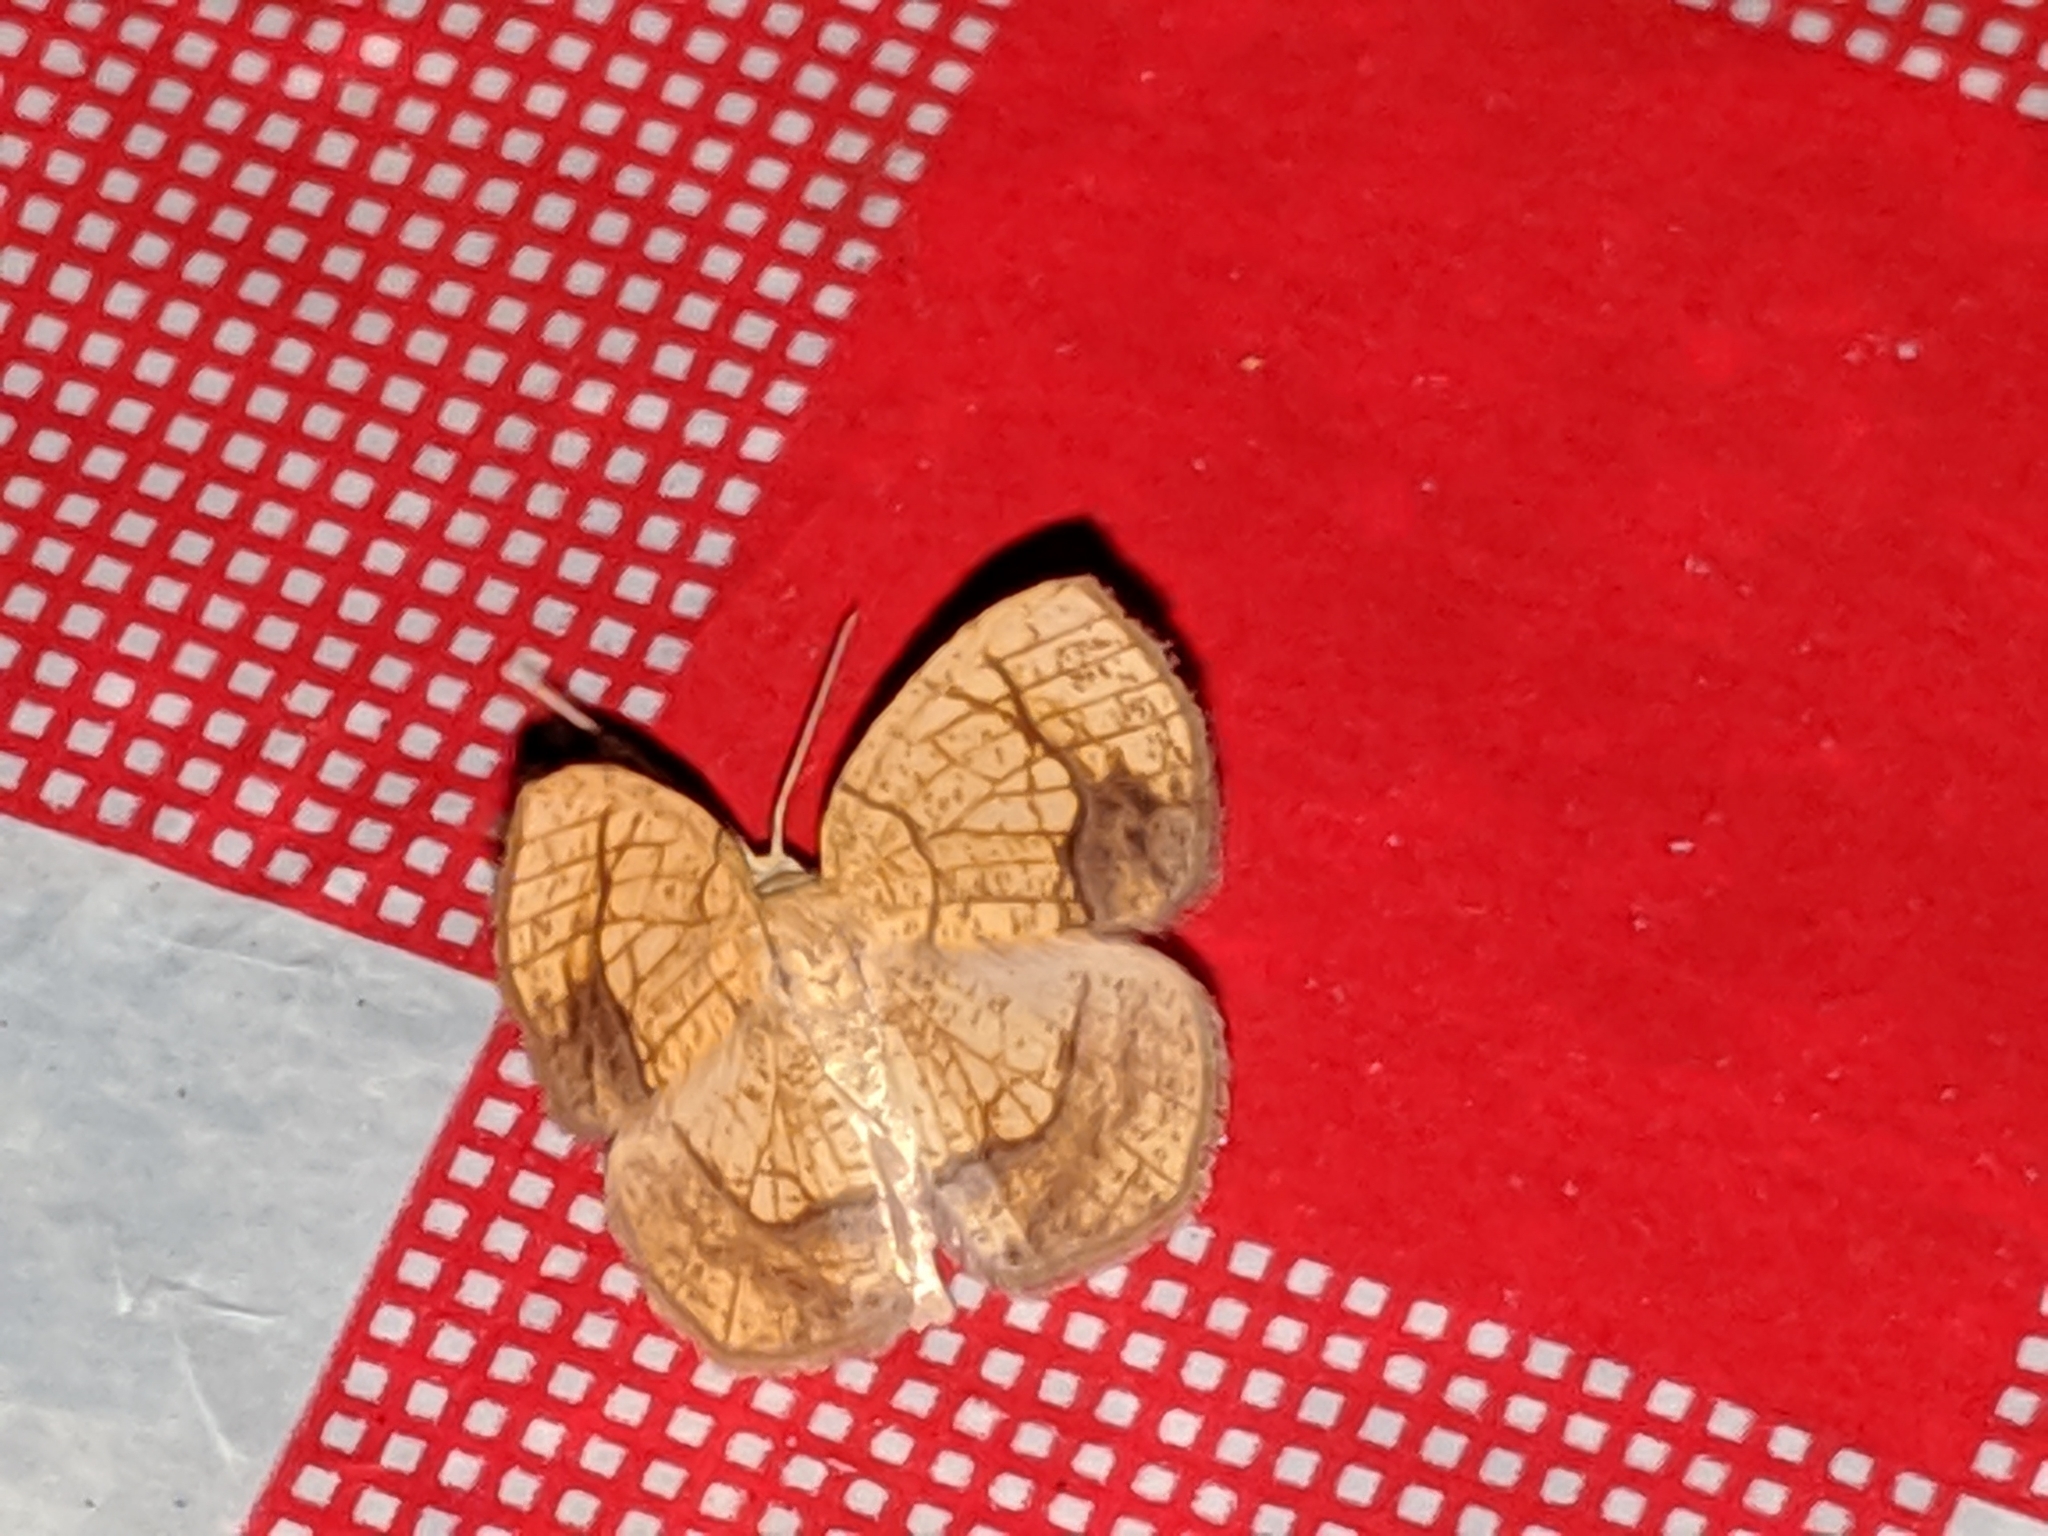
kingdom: Animalia
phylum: Arthropoda
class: Insecta
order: Lepidoptera
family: Geometridae
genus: Nematocampa
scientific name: Nematocampa resistaria
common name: Horned spanworm moth
